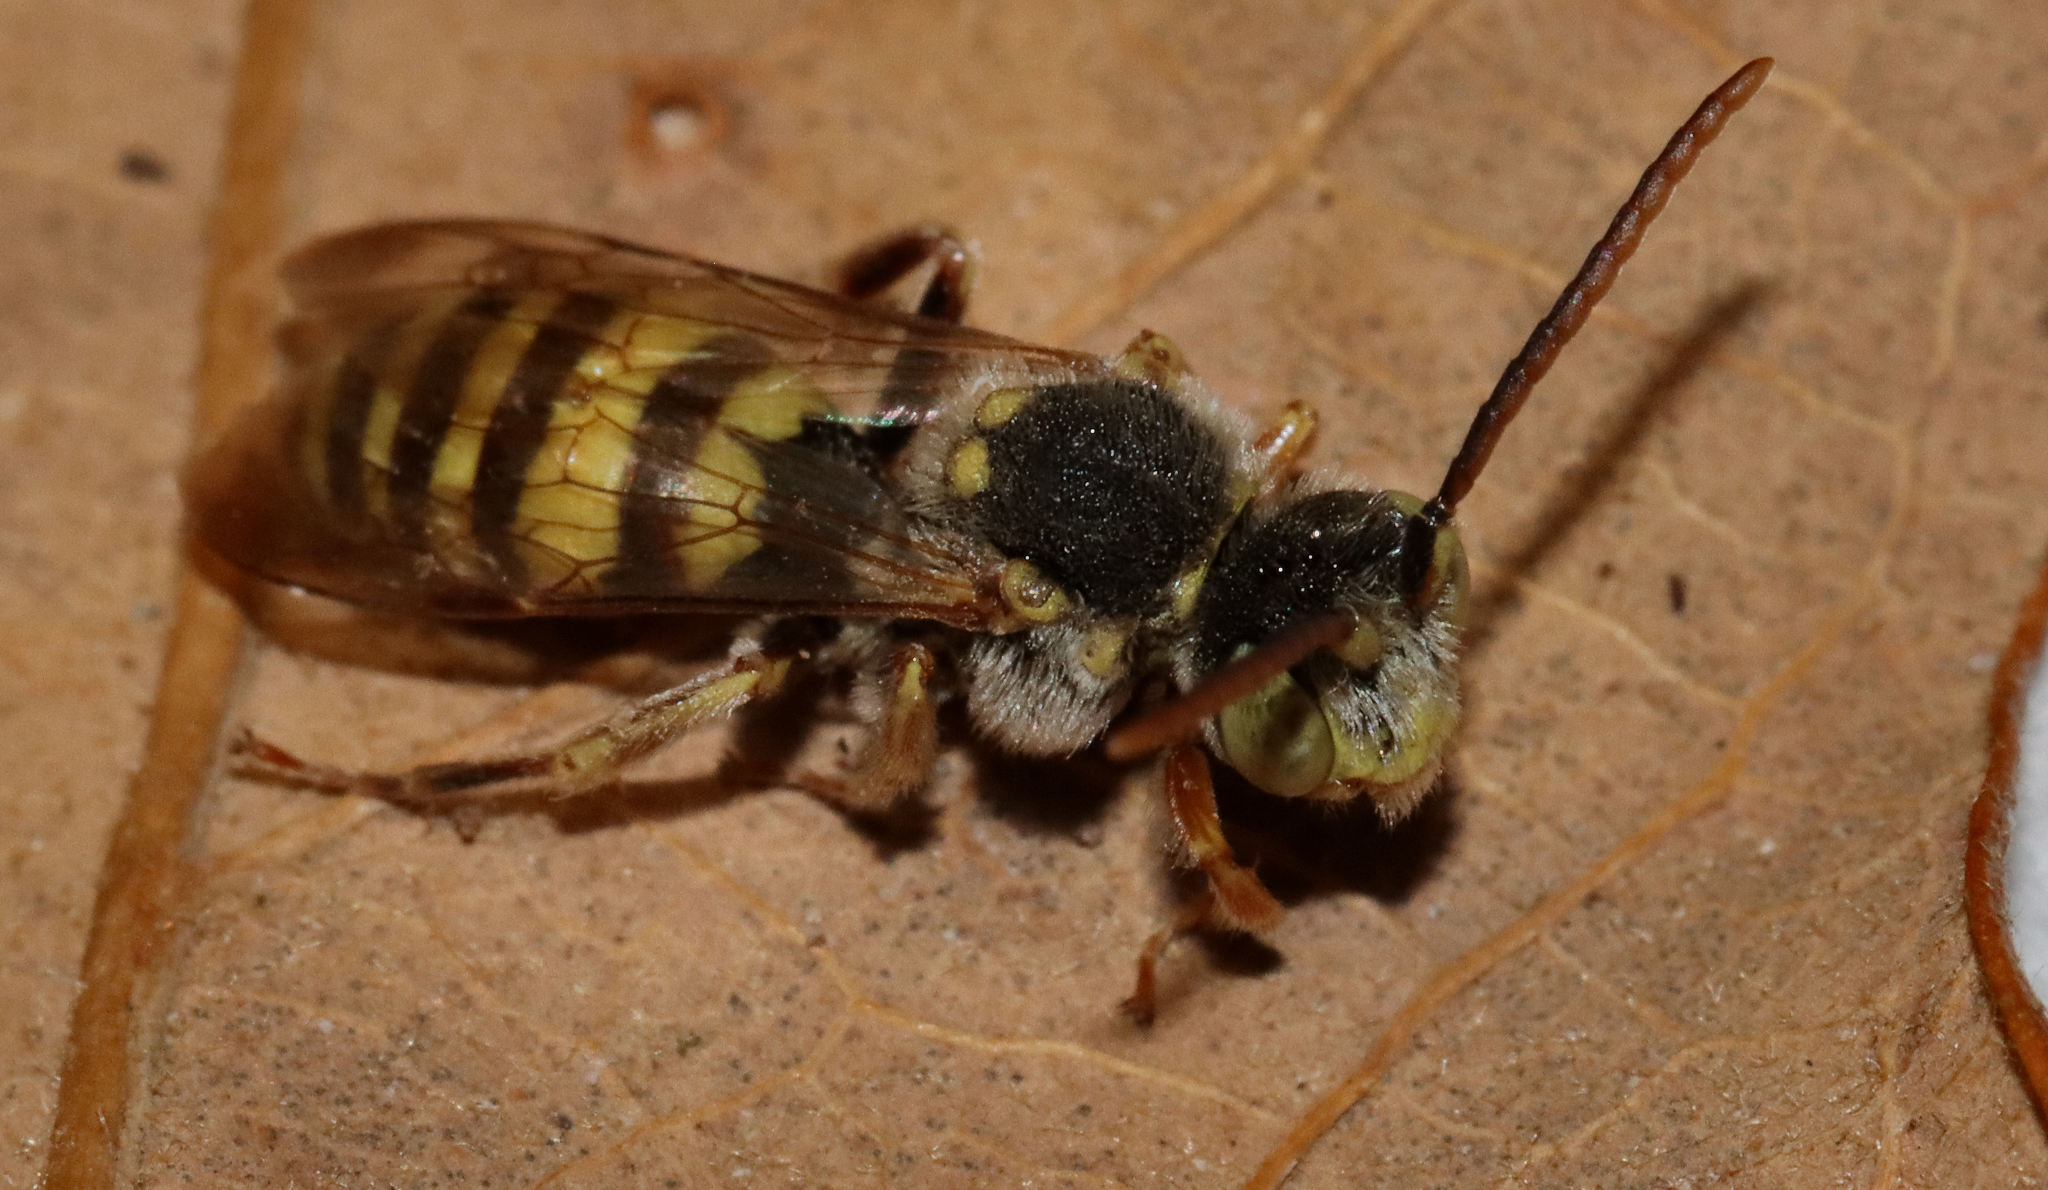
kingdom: Animalia
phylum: Arthropoda
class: Insecta
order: Hymenoptera
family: Apidae
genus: Nomada
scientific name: Nomada
